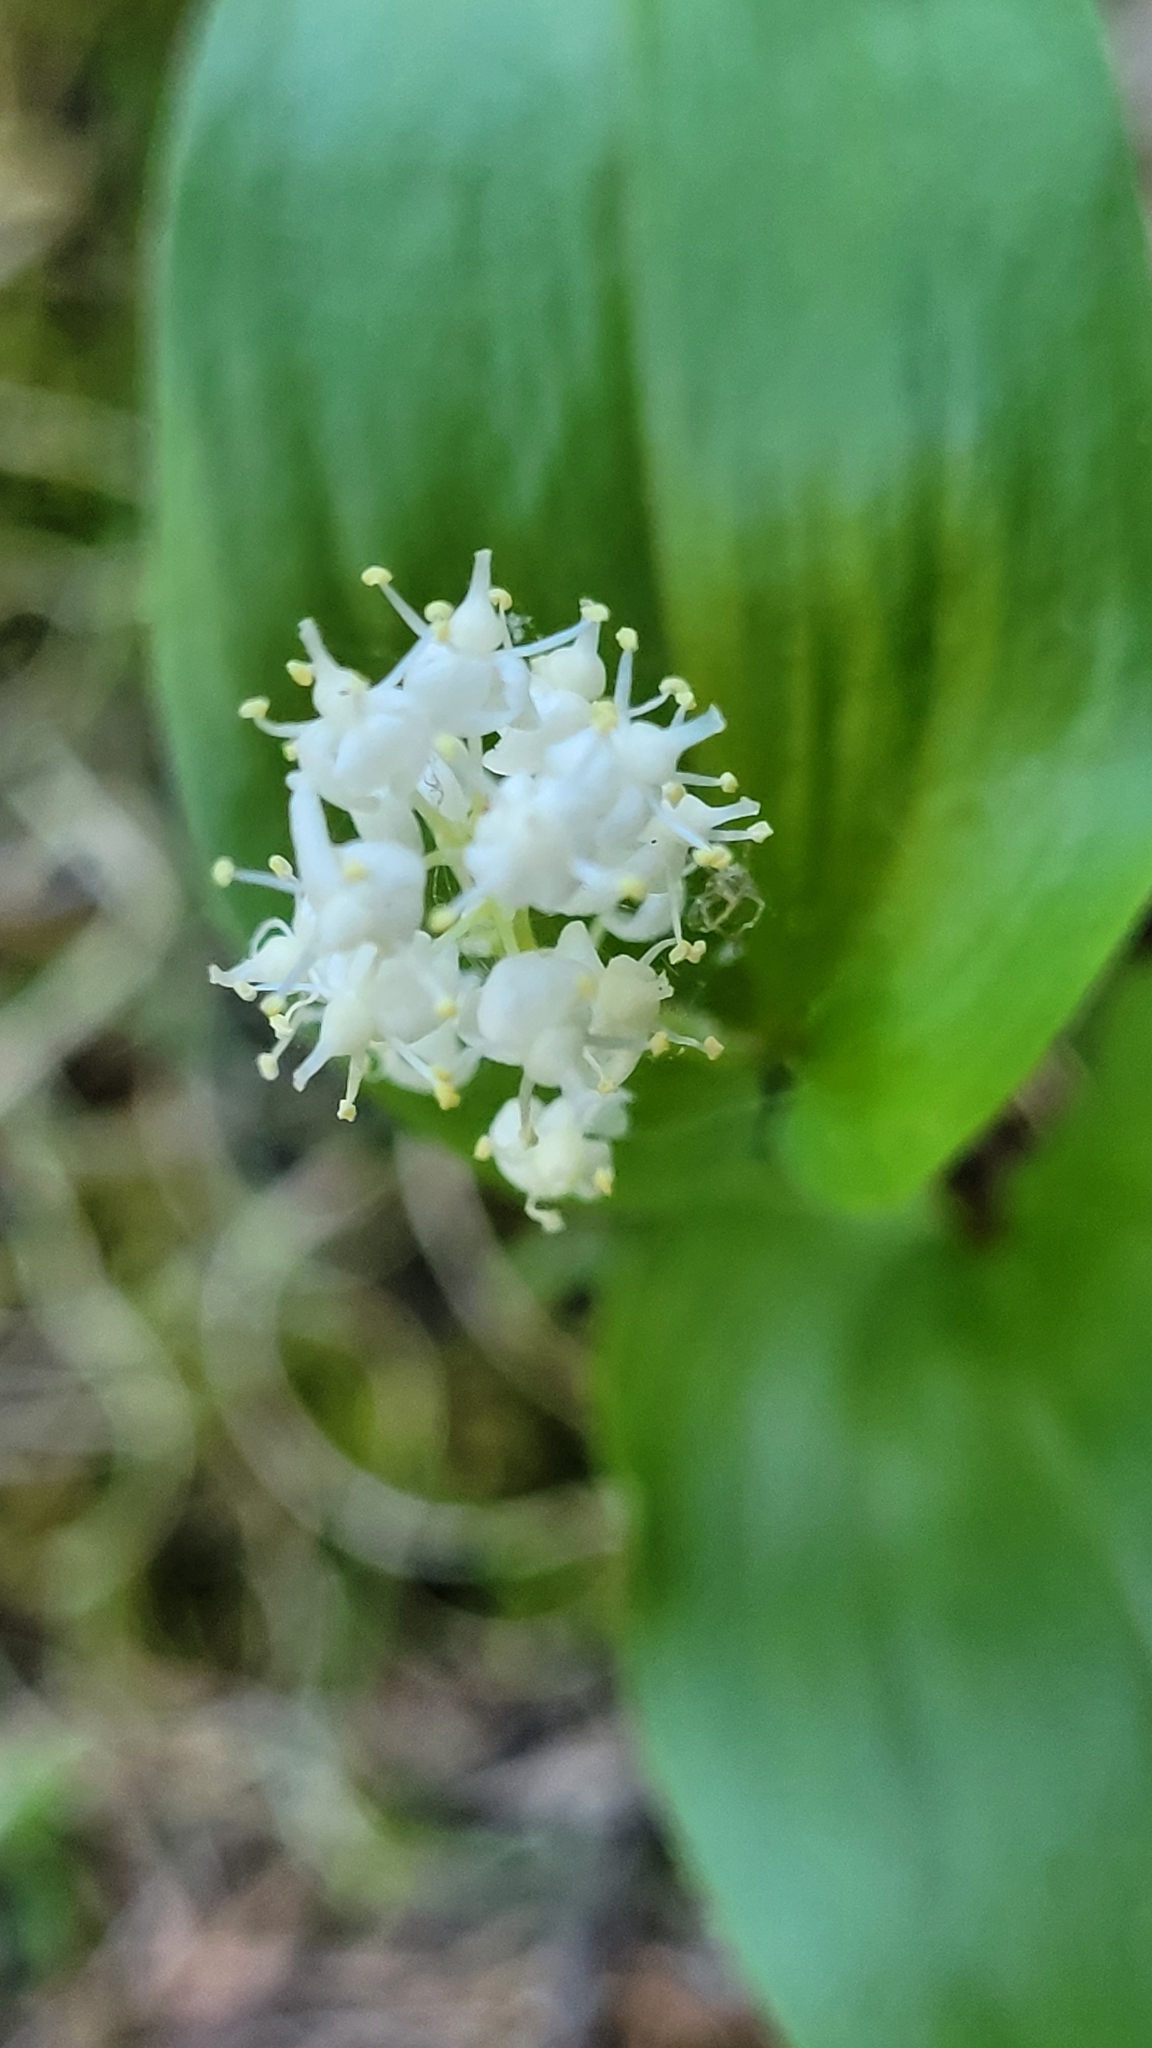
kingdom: Plantae
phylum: Tracheophyta
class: Liliopsida
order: Asparagales
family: Asparagaceae
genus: Maianthemum
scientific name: Maianthemum canadense
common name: False lily-of-the-valley
